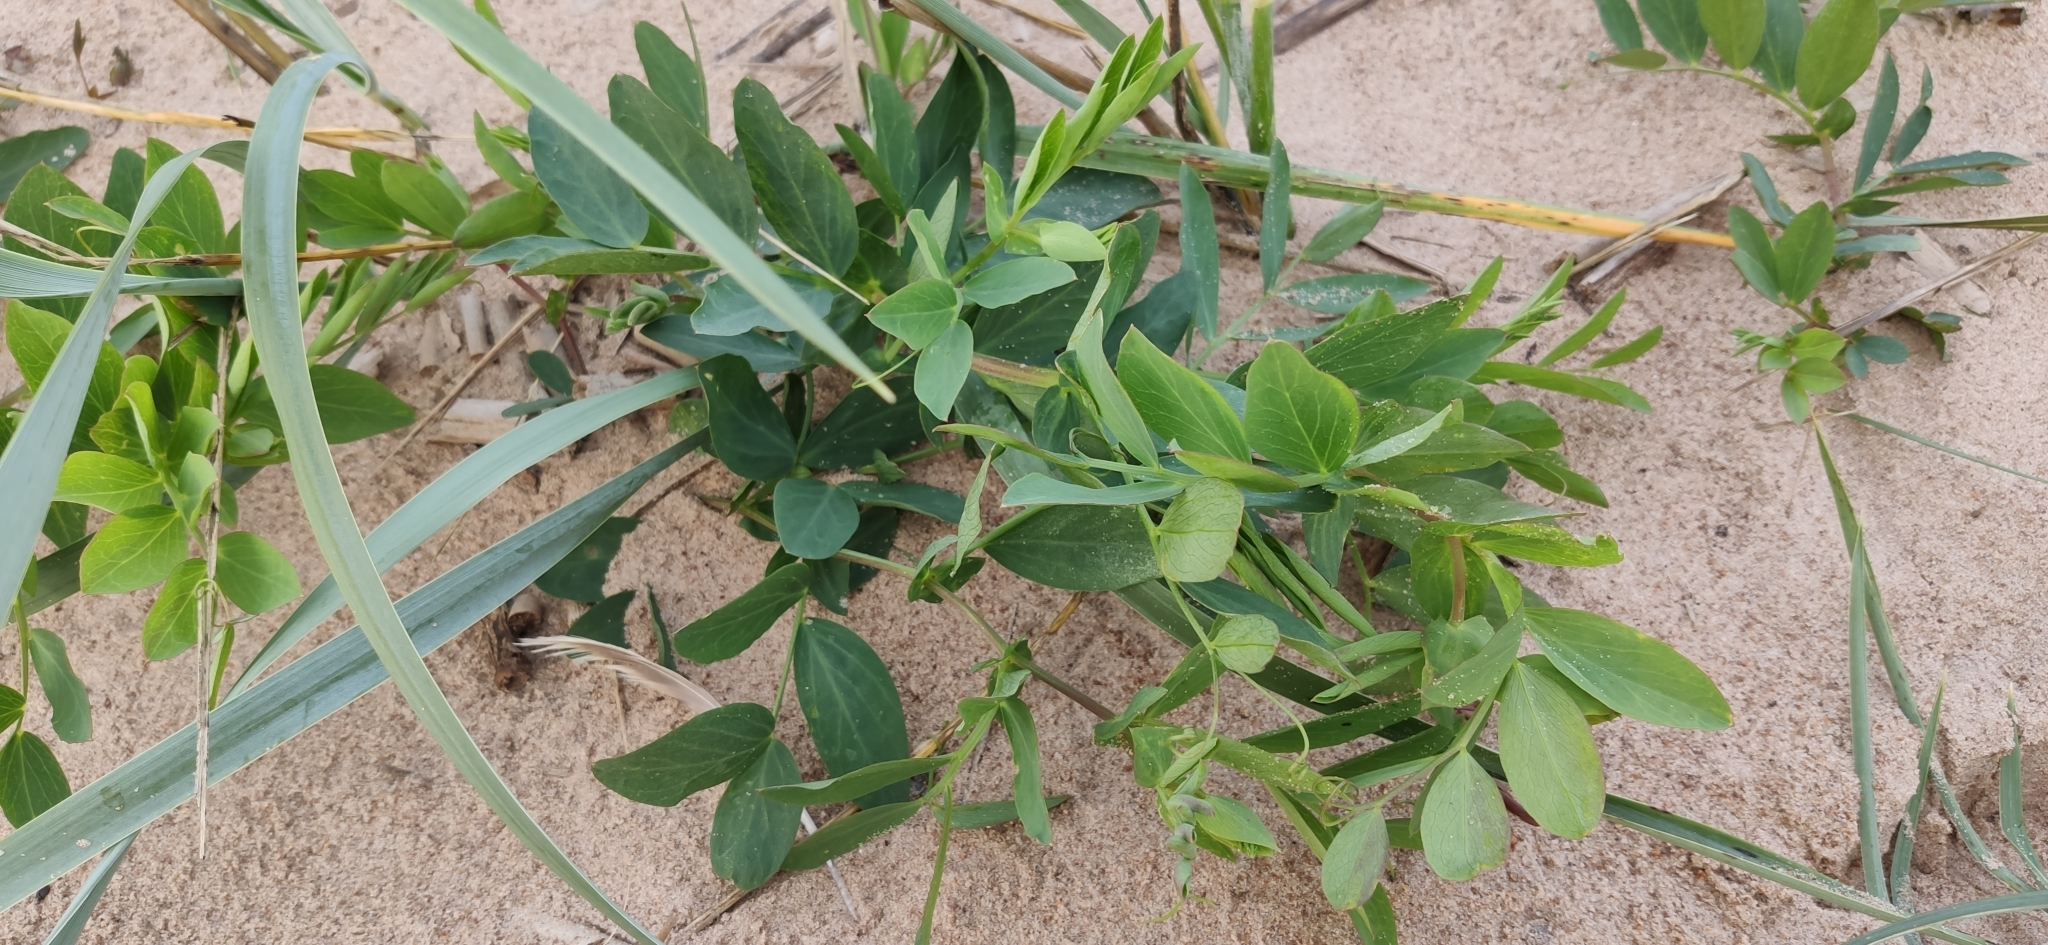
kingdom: Plantae
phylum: Tracheophyta
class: Magnoliopsida
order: Fabales
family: Fabaceae
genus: Lathyrus
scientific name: Lathyrus japonicus
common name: Sea pea
